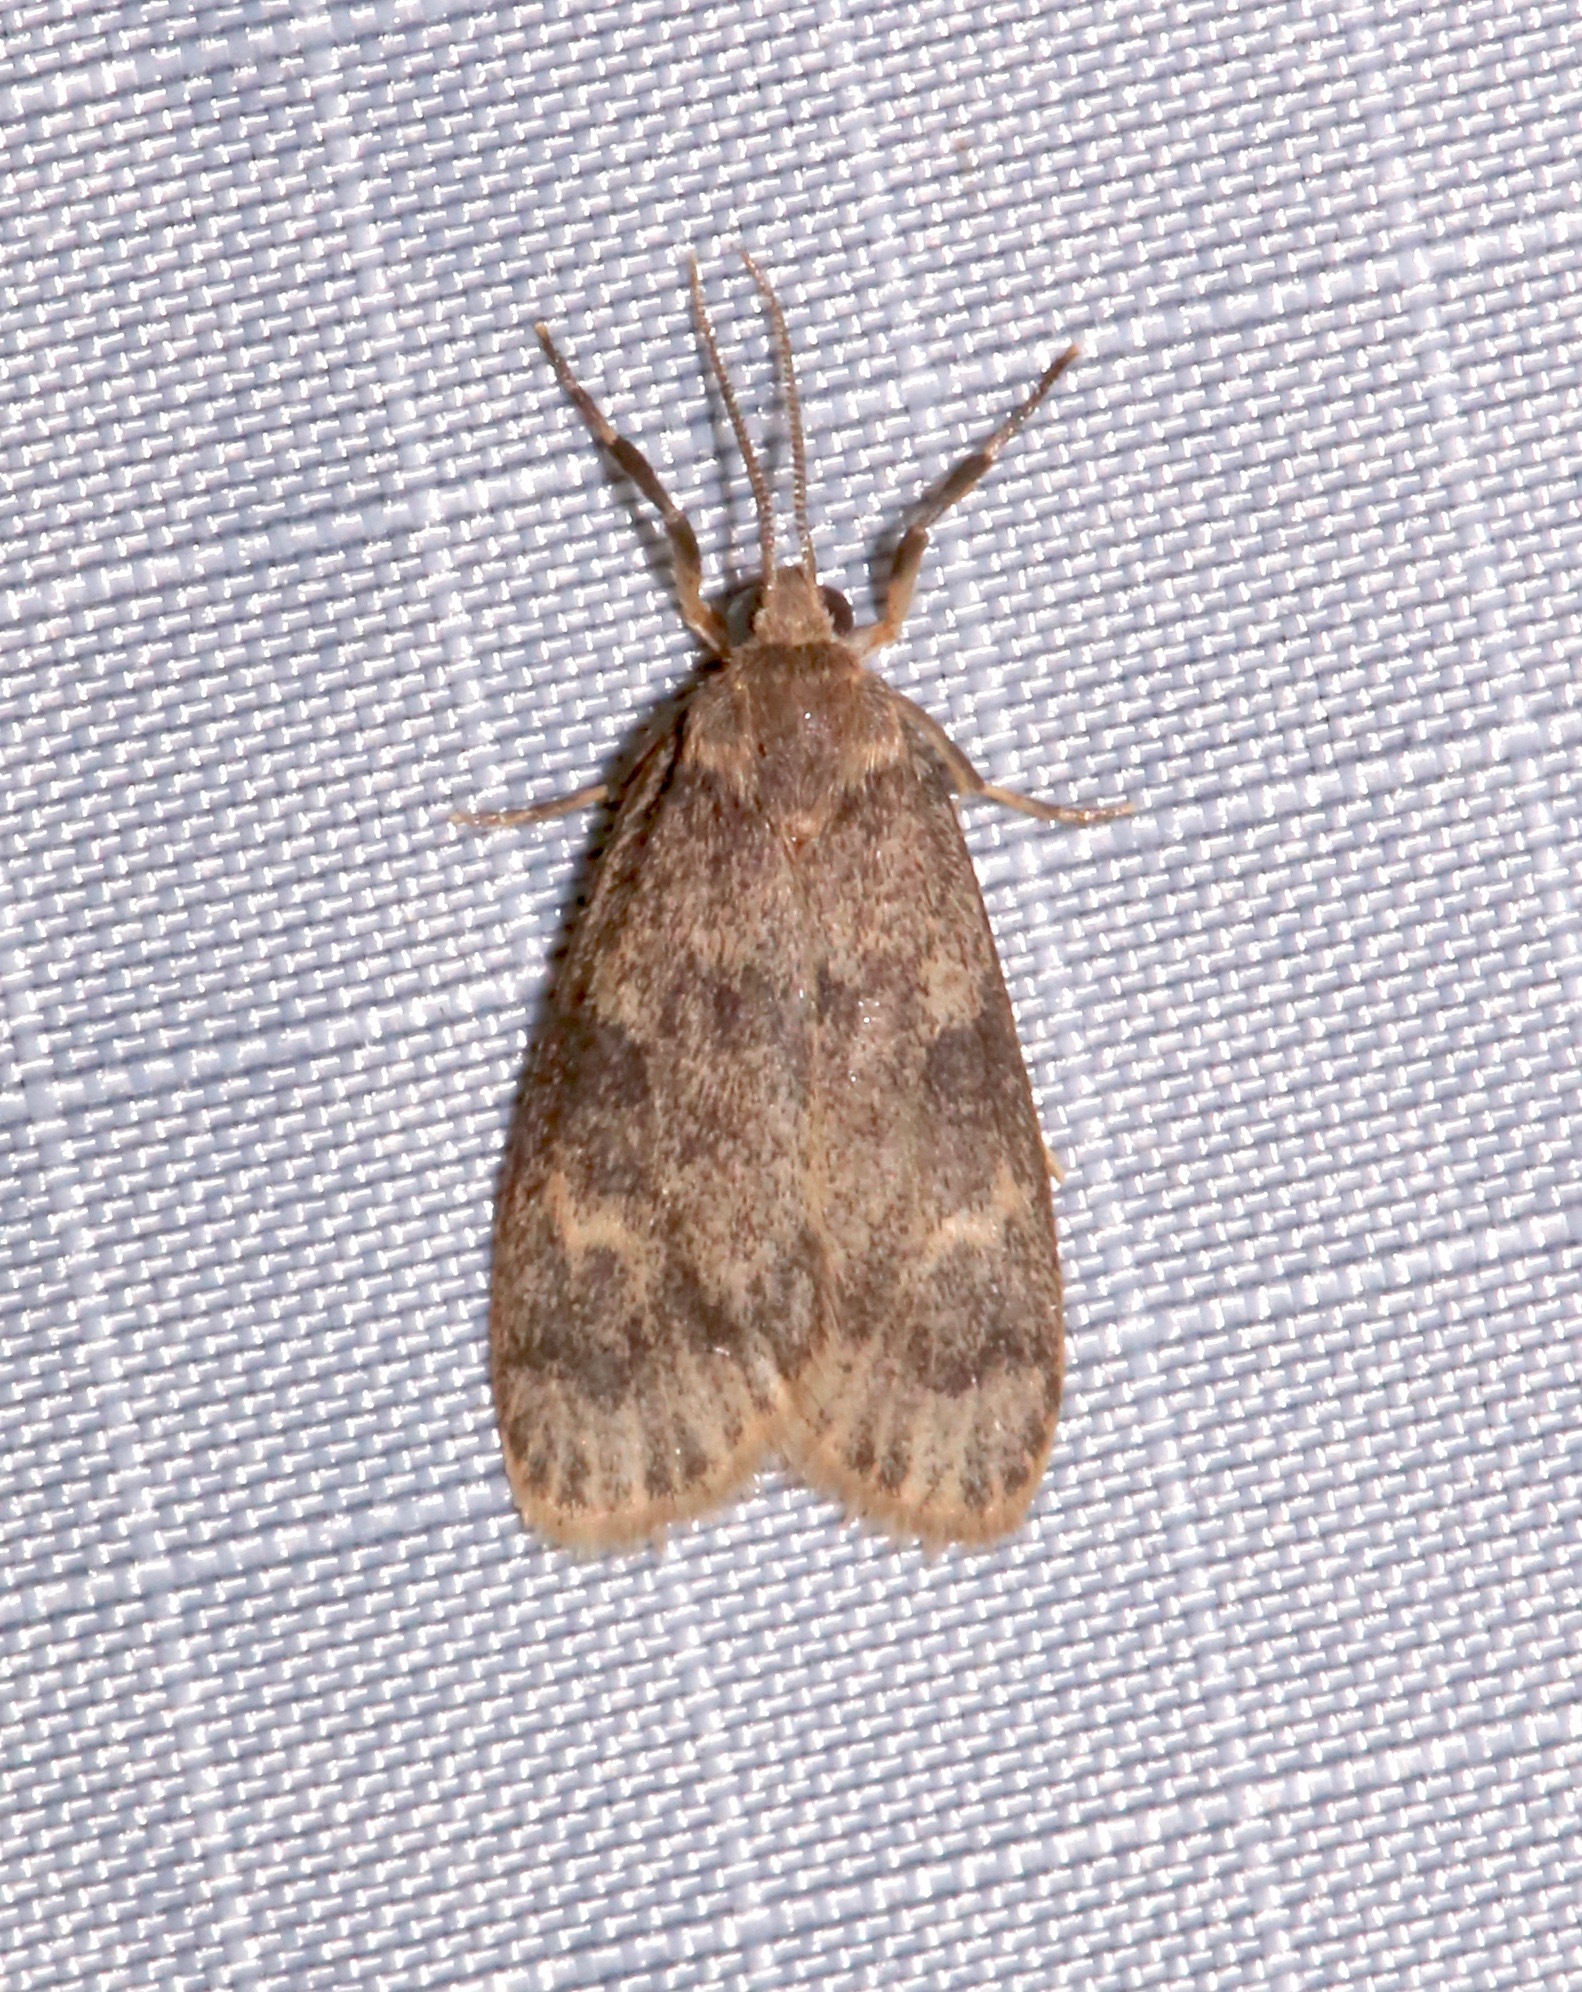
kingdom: Animalia
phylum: Arthropoda
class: Insecta
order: Lepidoptera
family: Erebidae
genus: Bruceia
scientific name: Bruceia hubbardi
